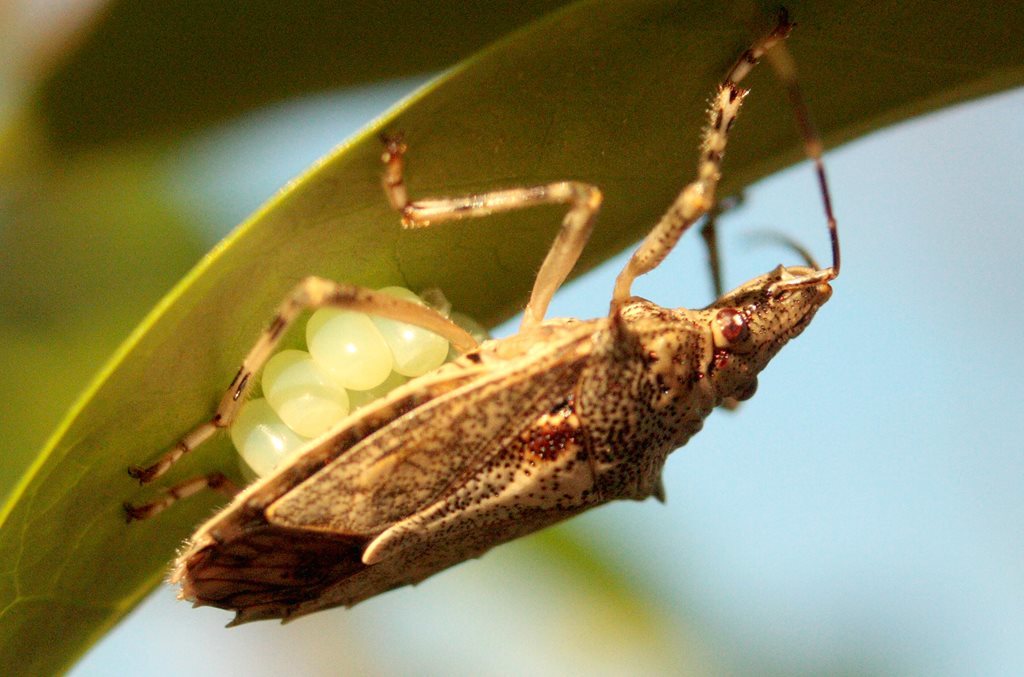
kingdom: Animalia
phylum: Arthropoda
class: Insecta
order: Hemiptera
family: Pentatomidae
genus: Bromocoris
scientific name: Bromocoris
